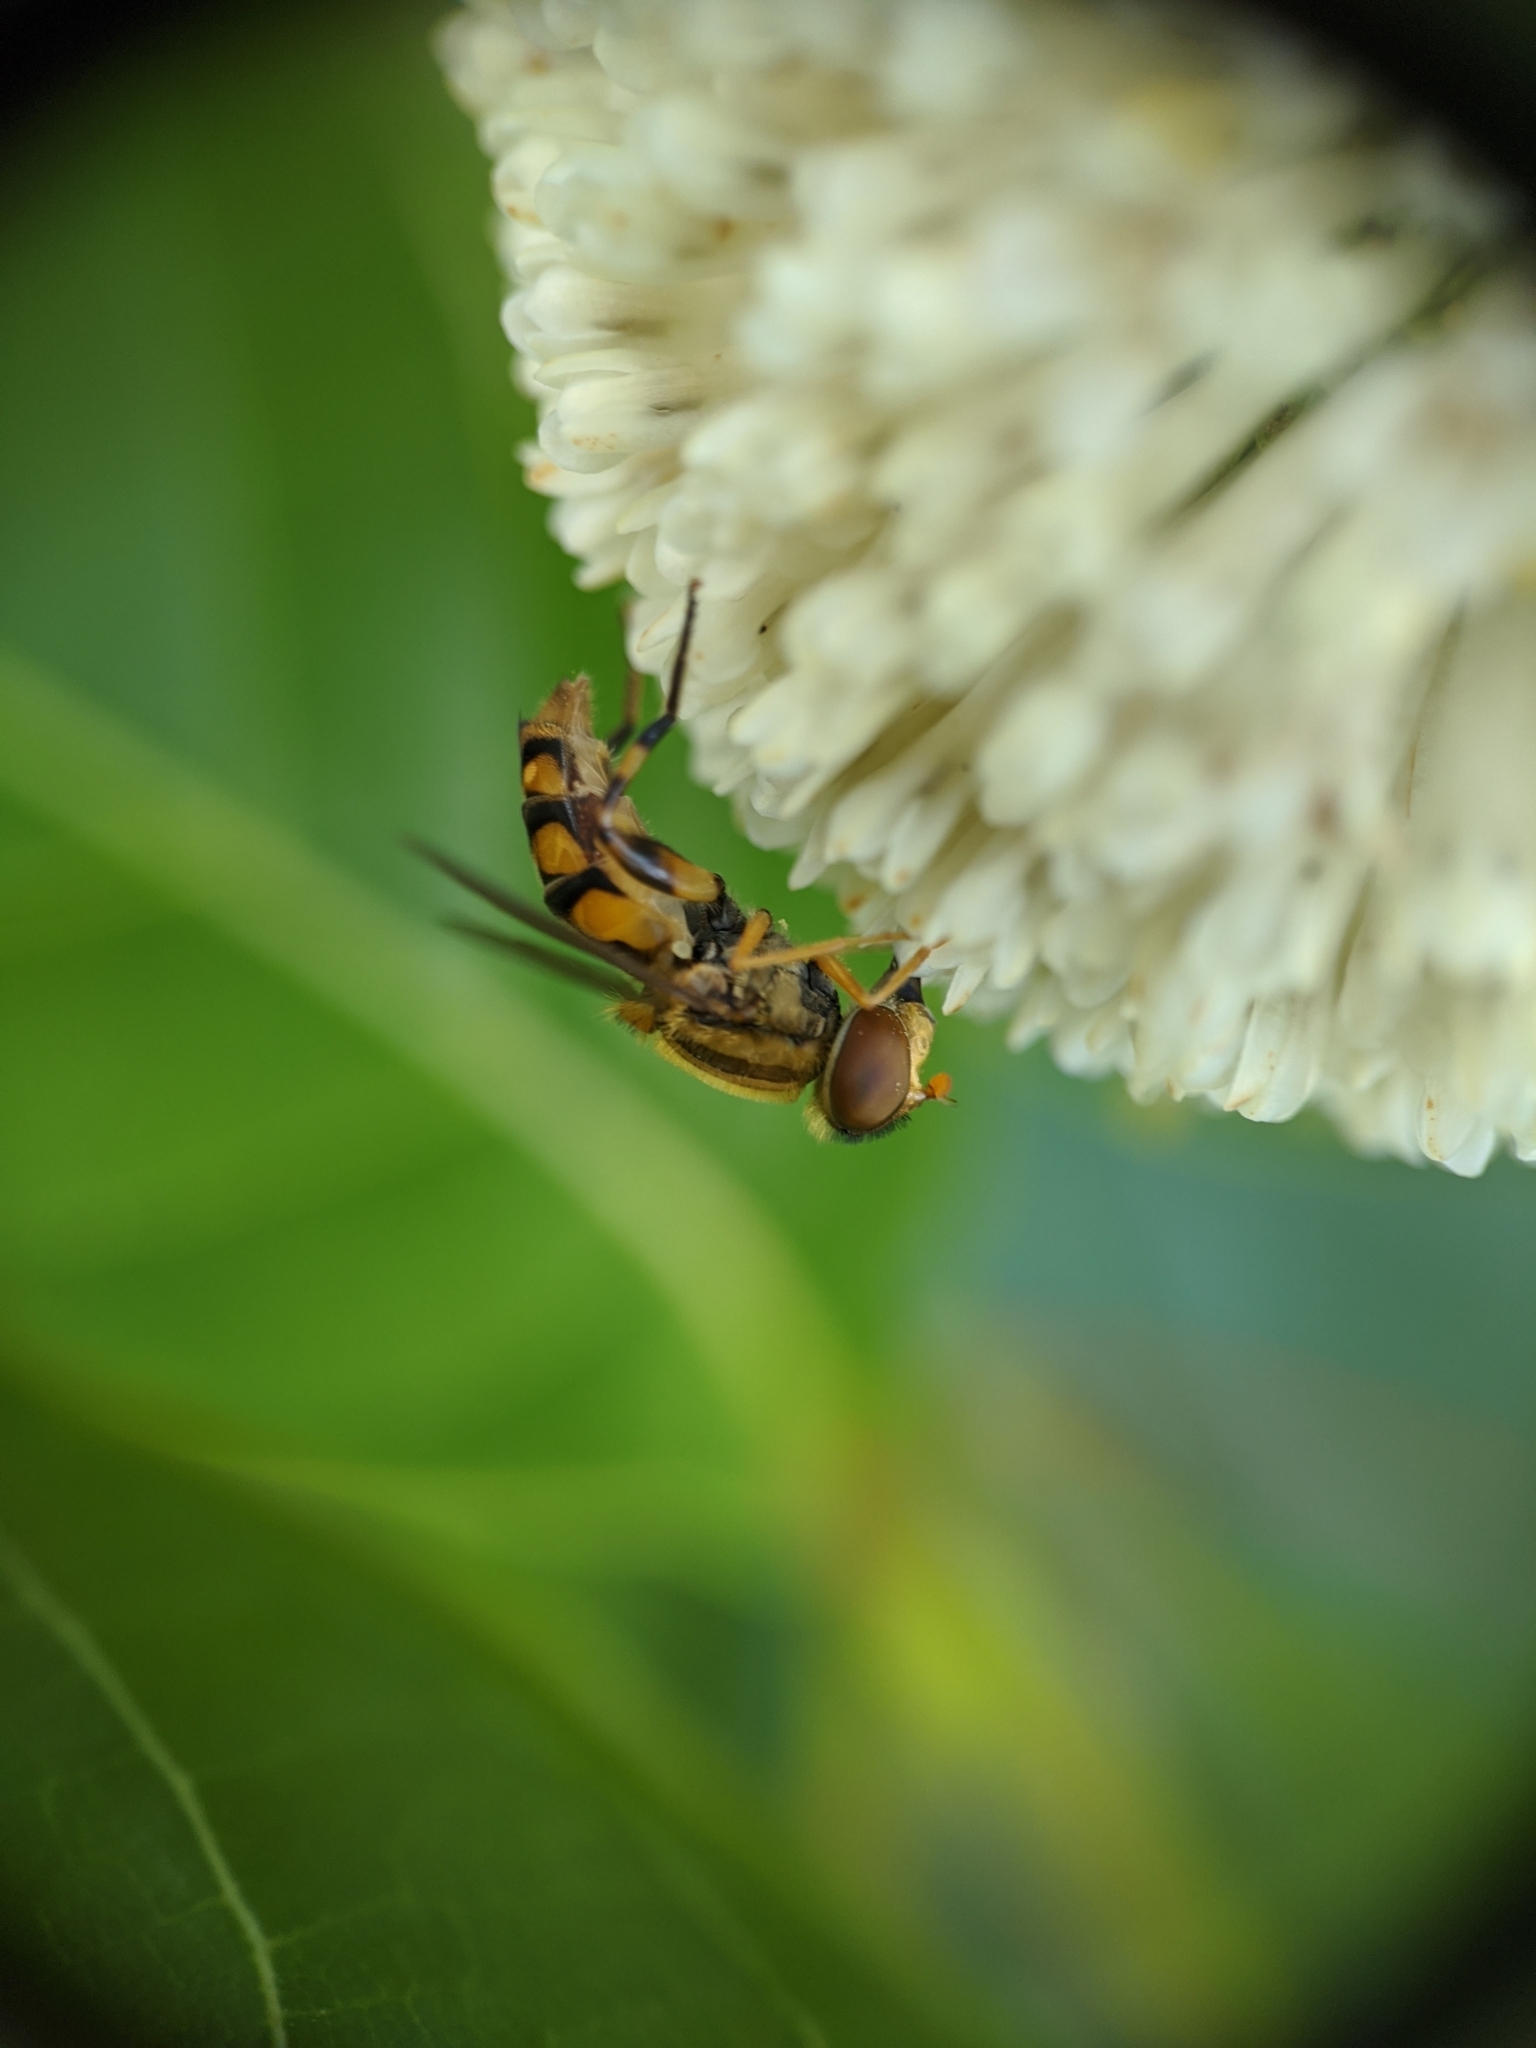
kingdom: Animalia
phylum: Arthropoda
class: Insecta
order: Diptera
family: Syrphidae
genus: Parhelophilus
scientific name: Parhelophilus integer
